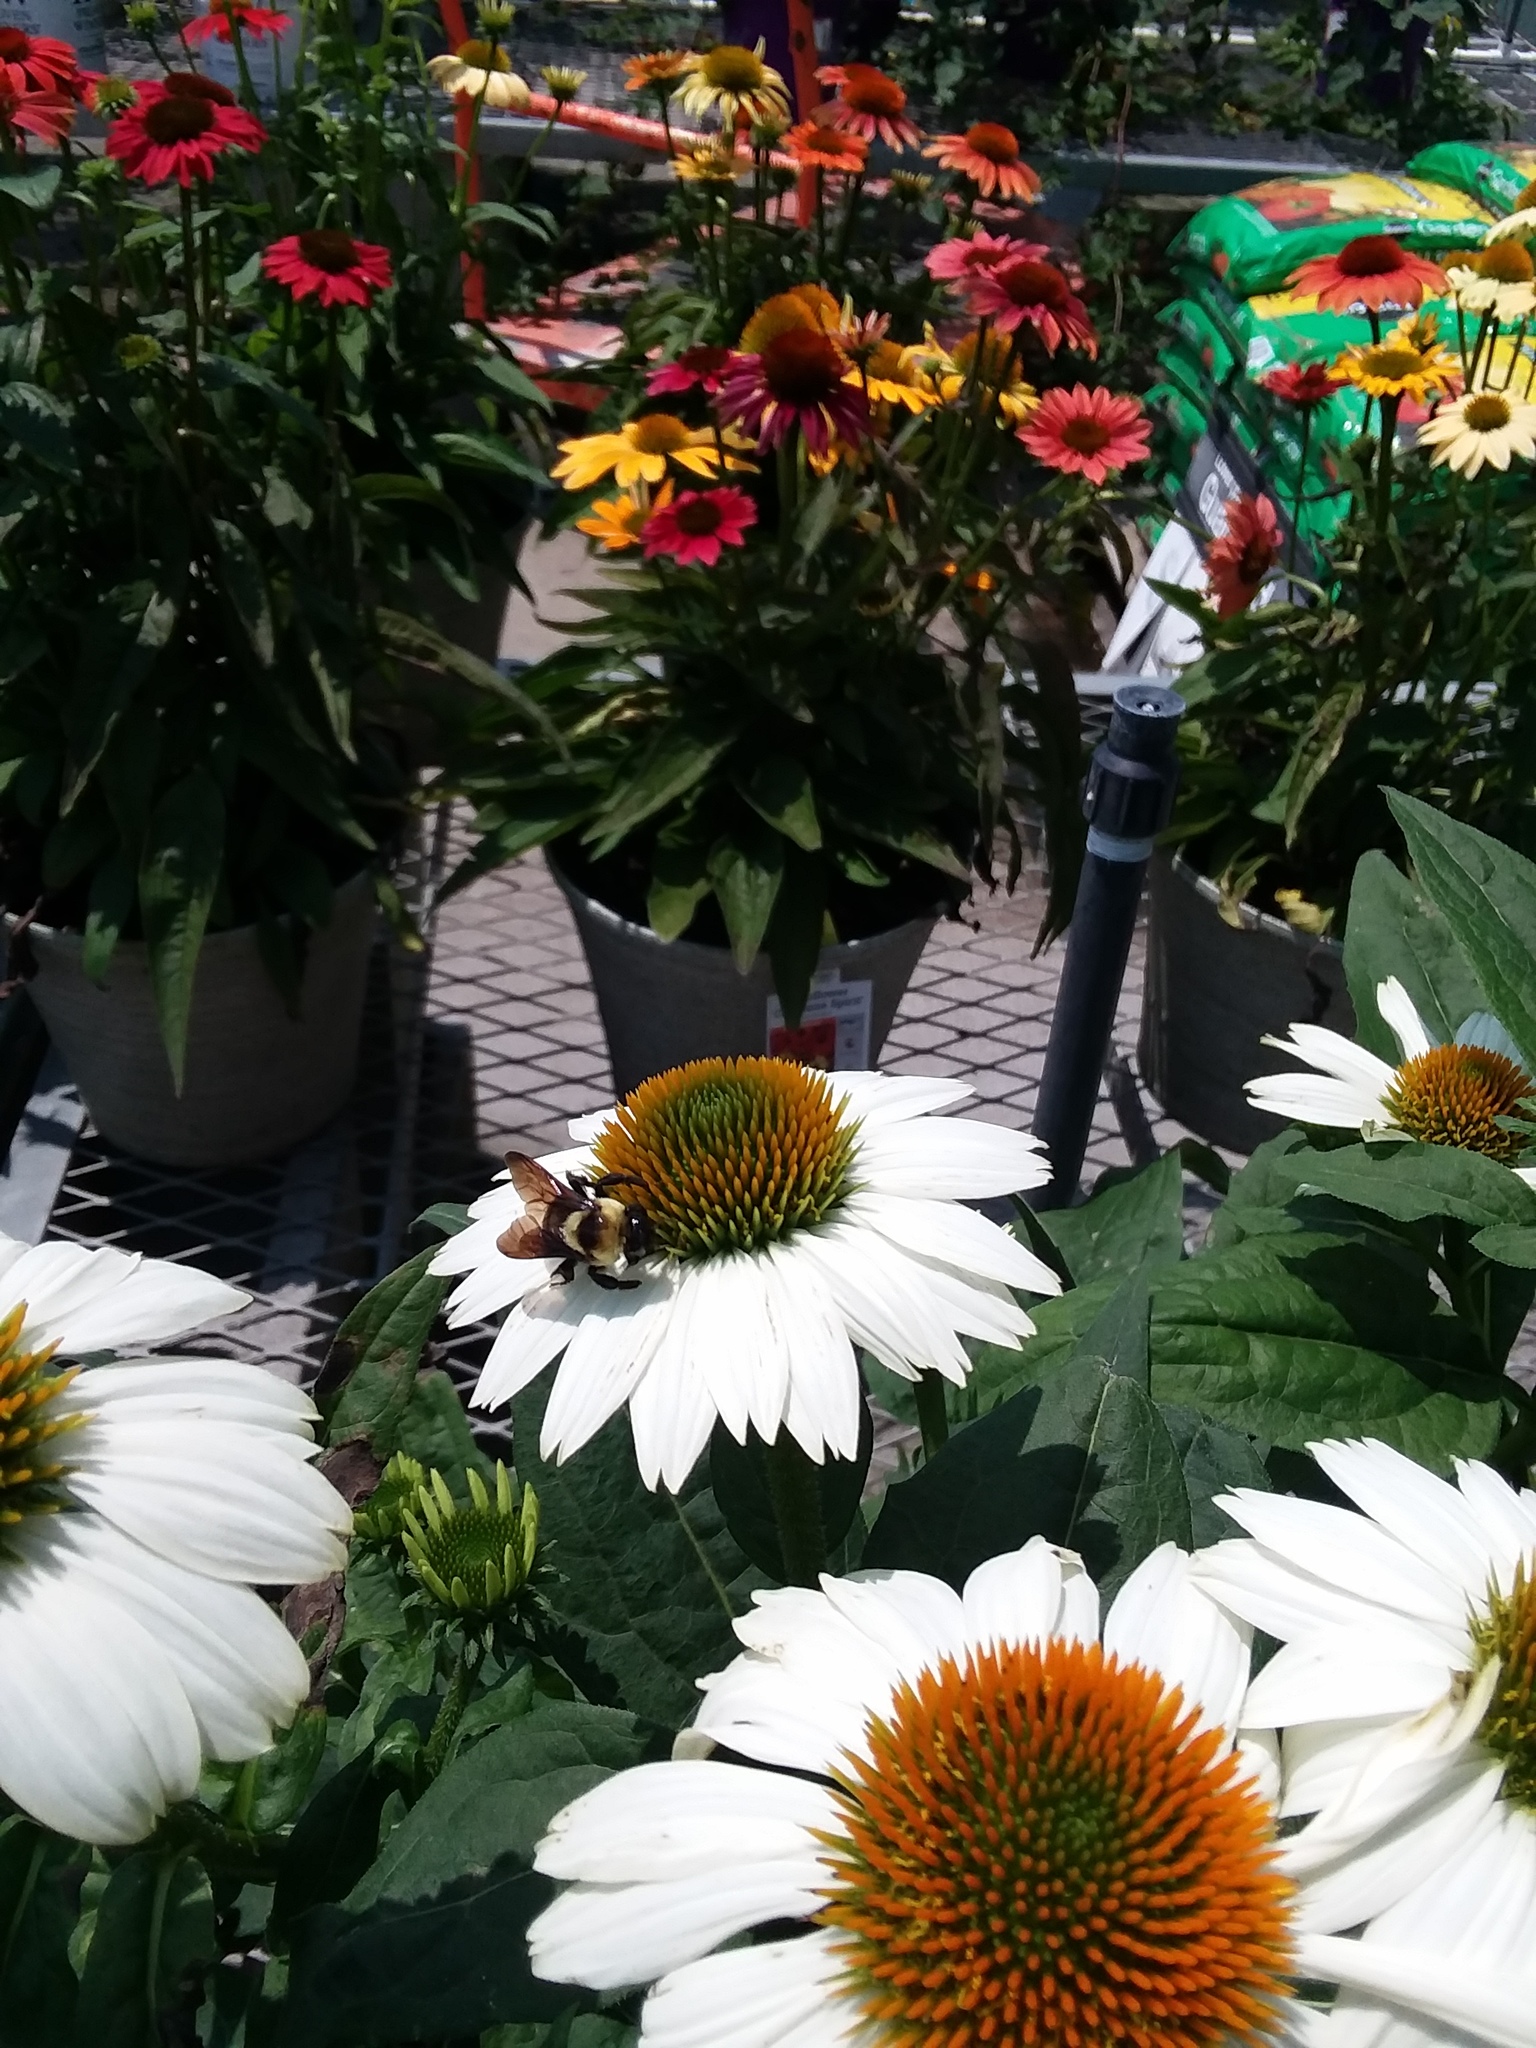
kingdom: Animalia
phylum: Arthropoda
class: Insecta
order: Hymenoptera
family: Apidae
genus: Bombus
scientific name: Bombus fraternus
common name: Southern plains bumble bee
